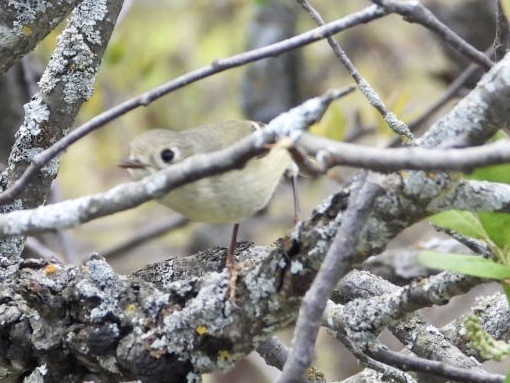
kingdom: Animalia
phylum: Chordata
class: Aves
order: Passeriformes
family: Regulidae
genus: Regulus
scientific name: Regulus calendula
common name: Ruby-crowned kinglet
